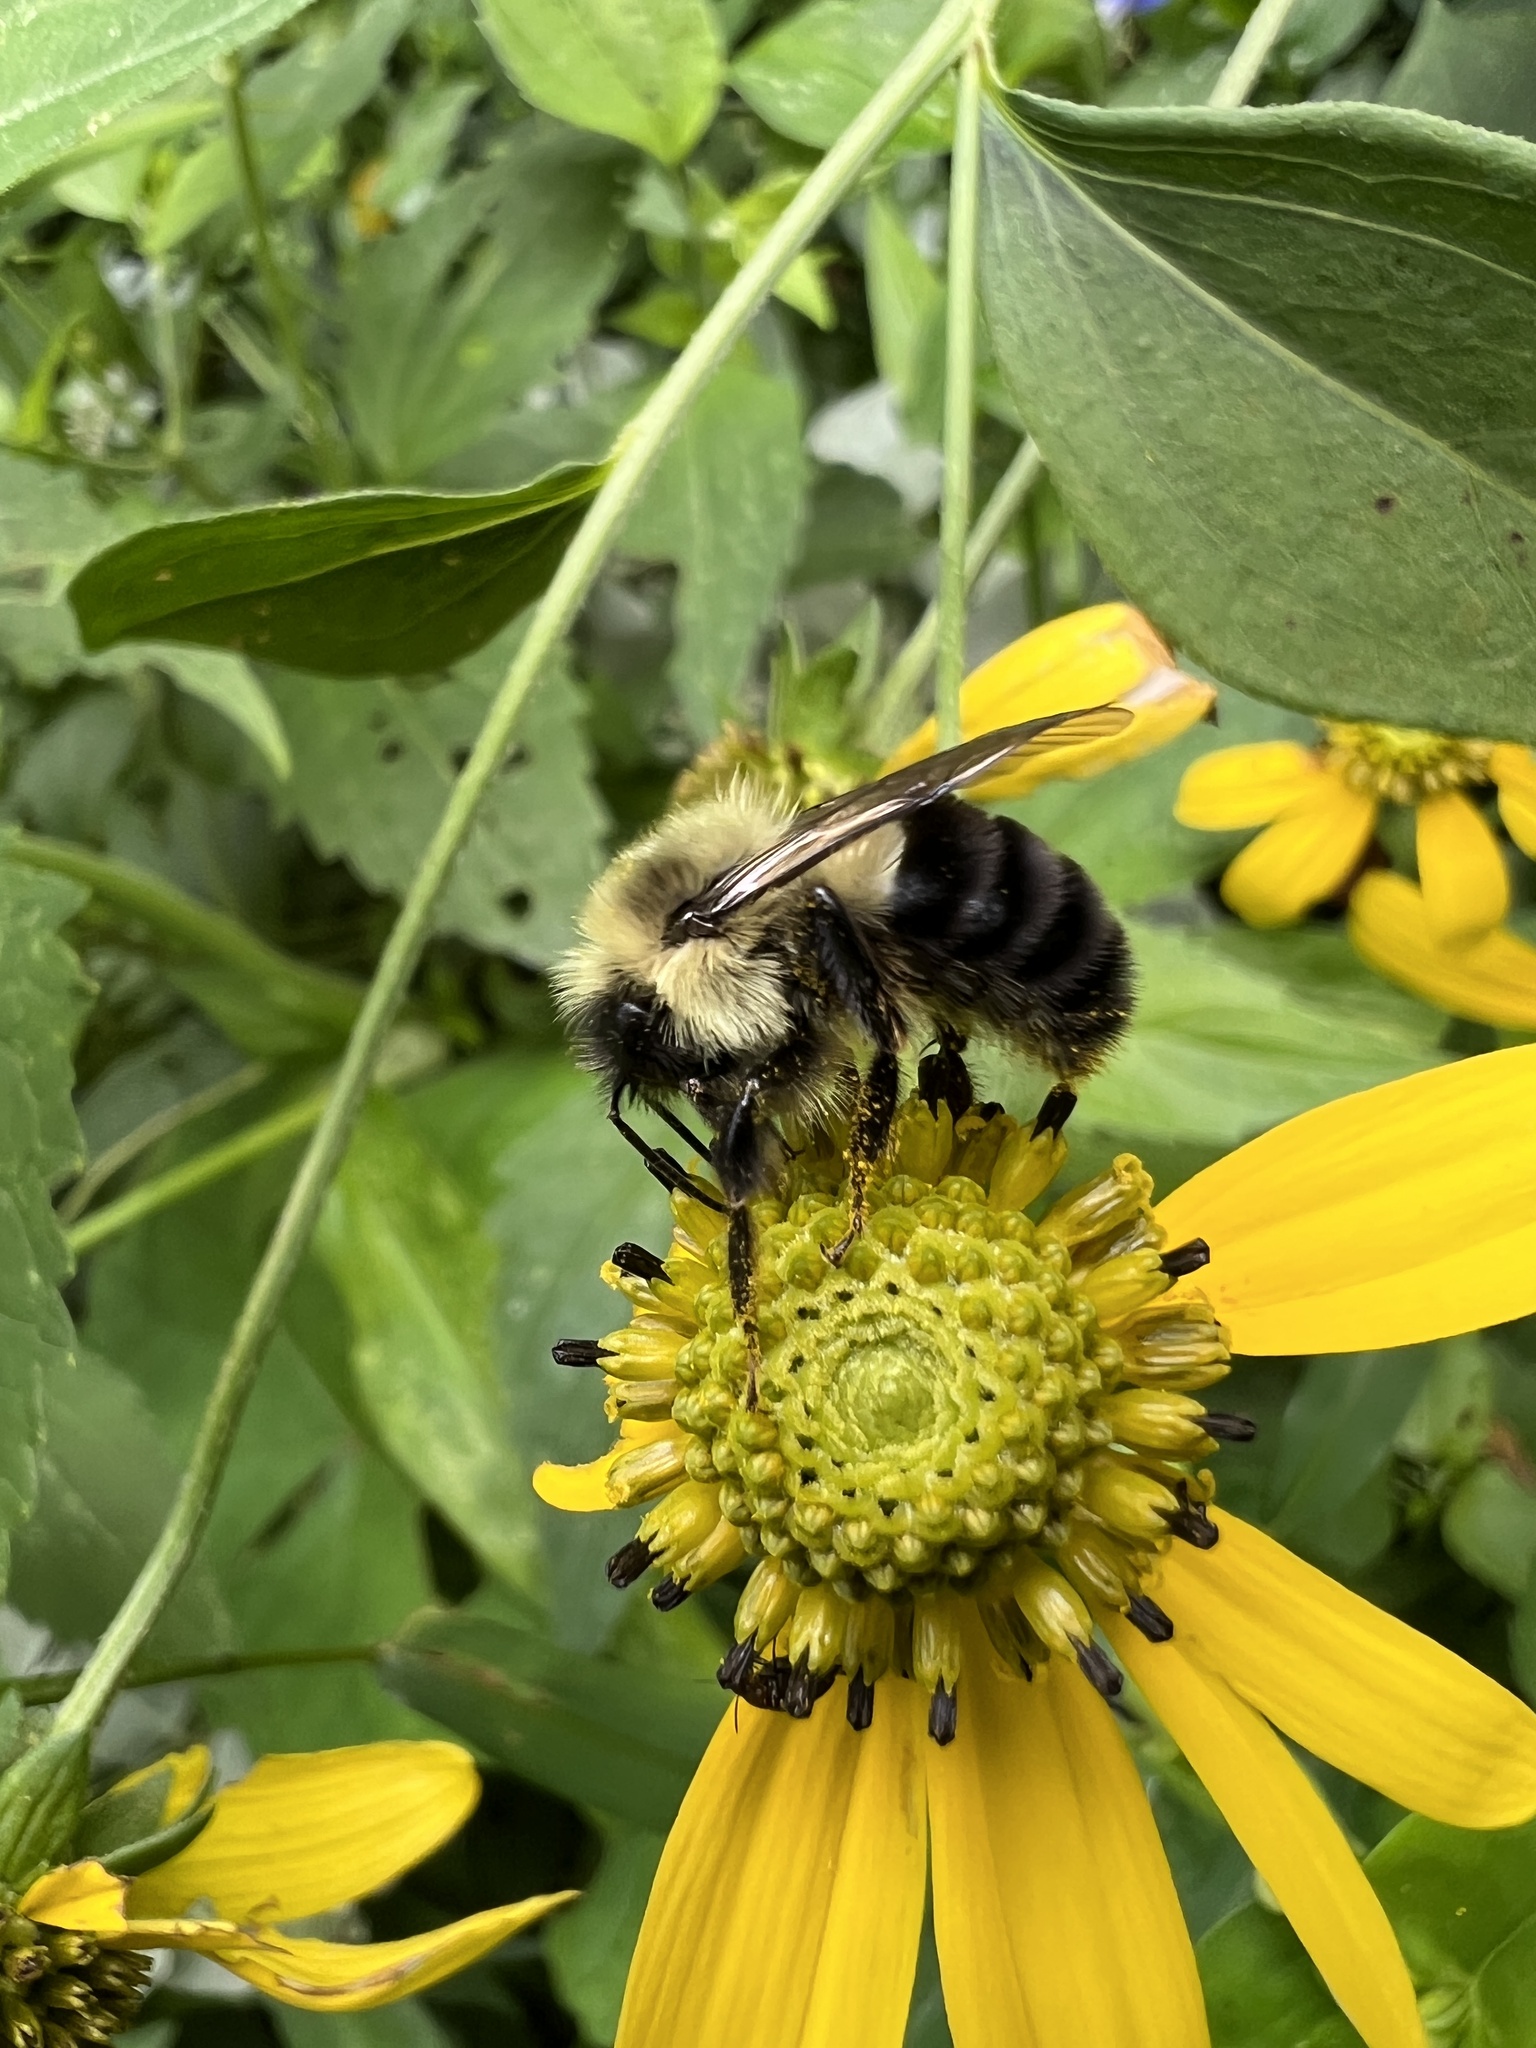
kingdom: Animalia
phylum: Arthropoda
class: Insecta
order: Hymenoptera
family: Apidae
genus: Bombus
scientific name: Bombus impatiens
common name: Common eastern bumble bee
